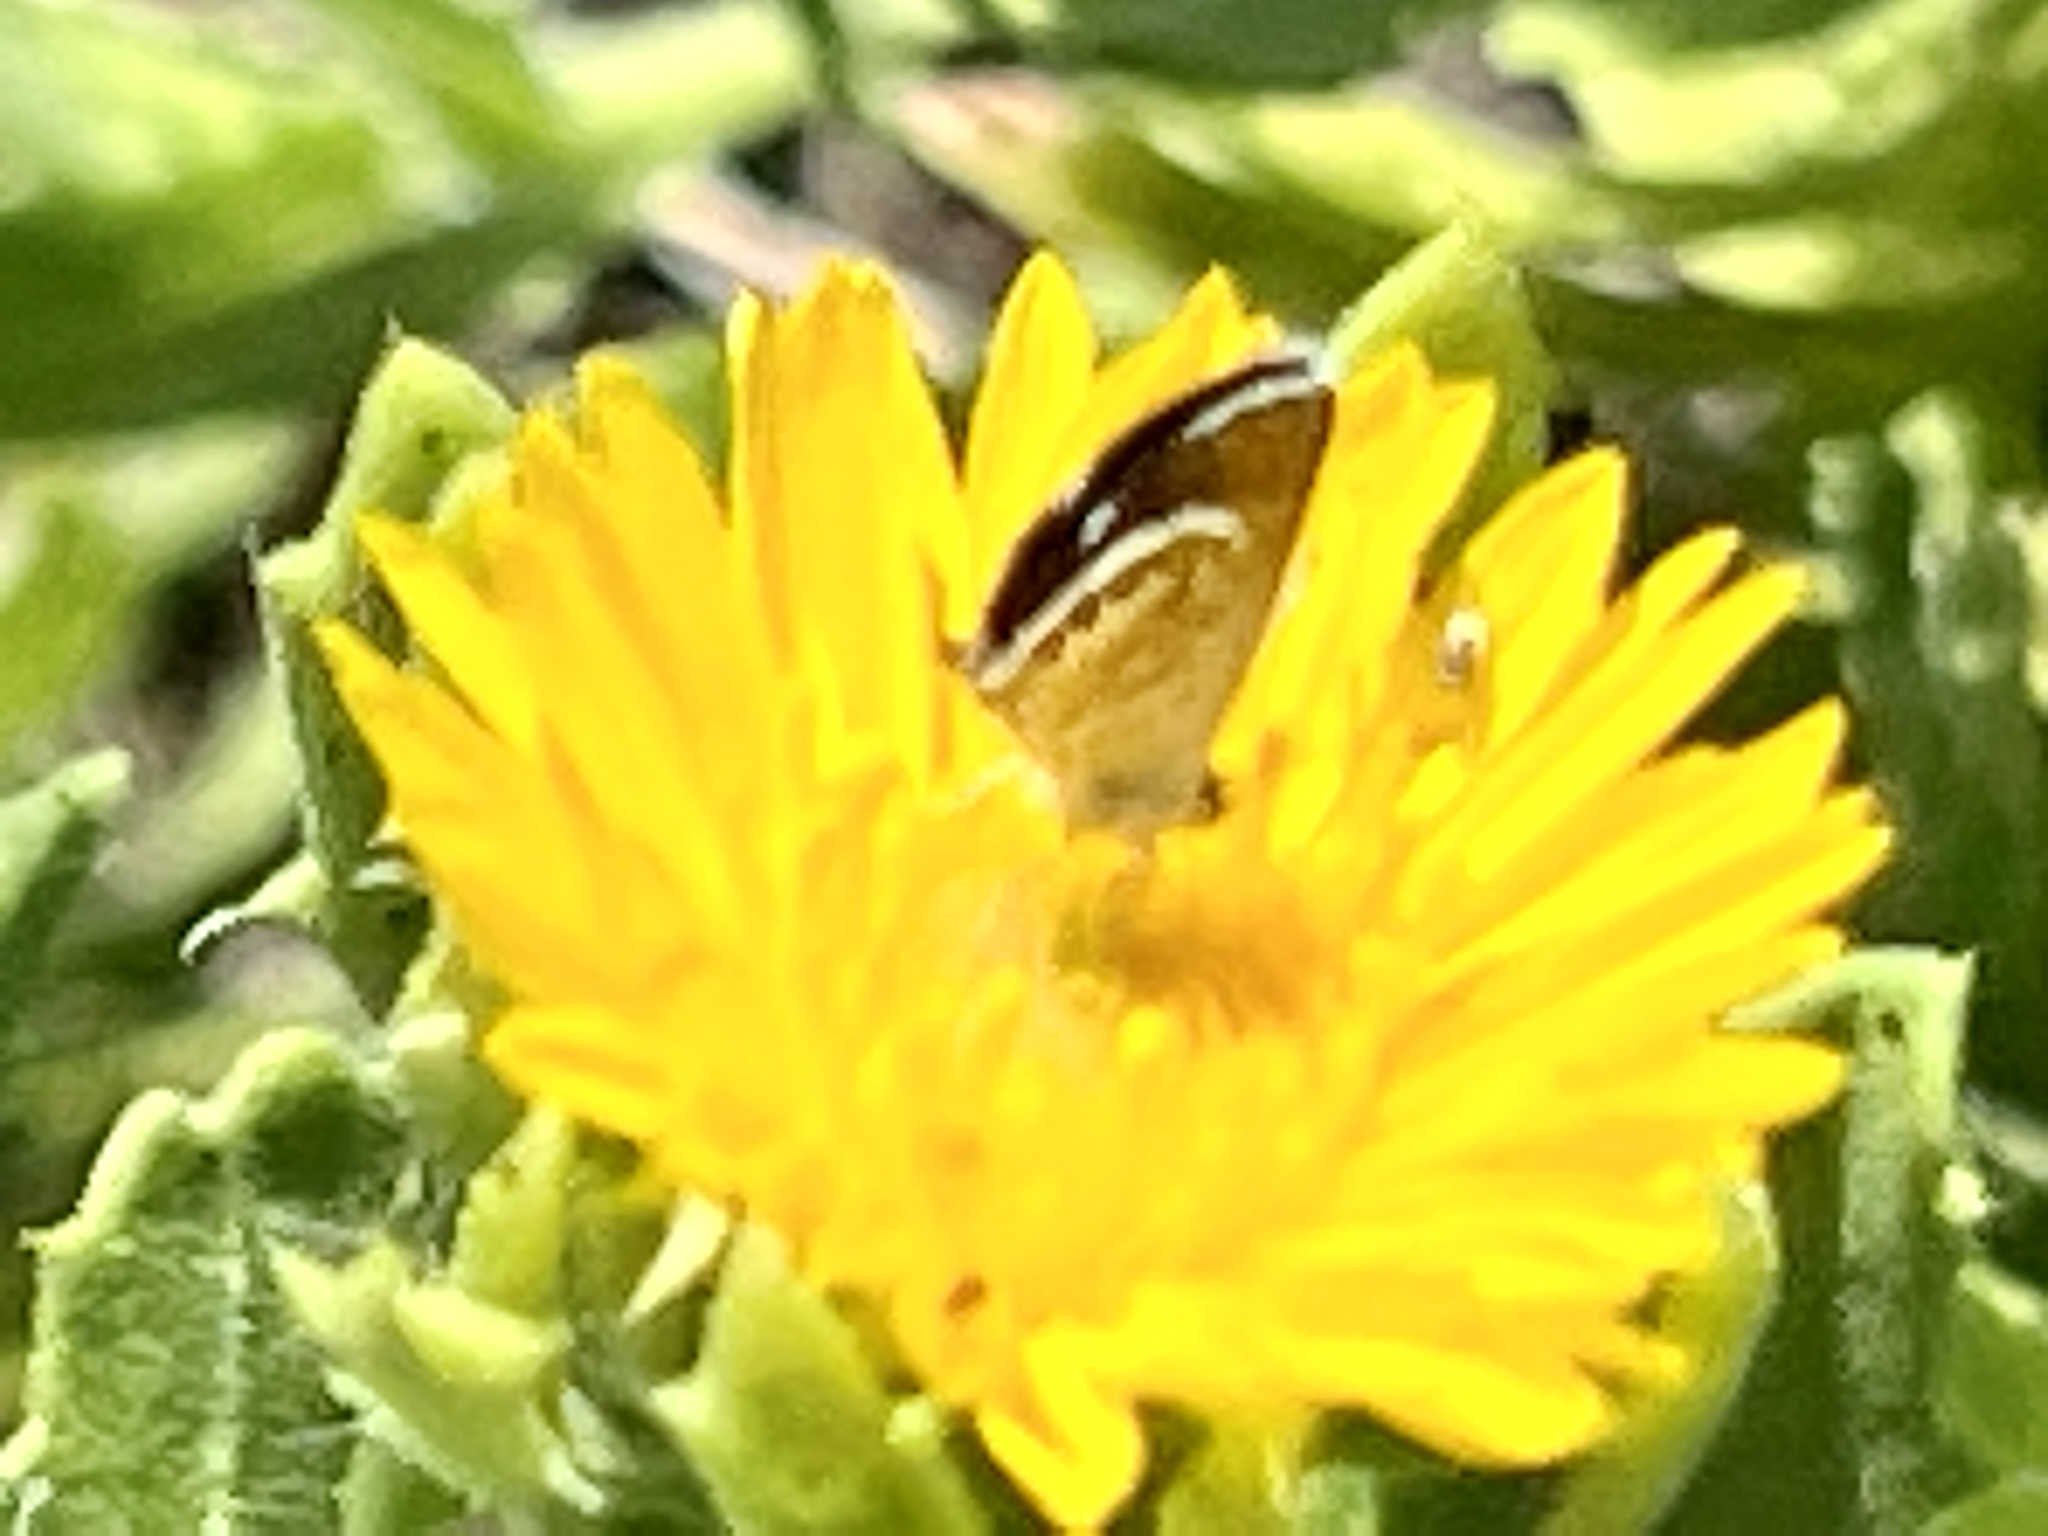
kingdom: Animalia
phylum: Arthropoda
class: Insecta
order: Lepidoptera
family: Lycaenidae
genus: Brephidium
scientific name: Brephidium exilis
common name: Pygmy blue
